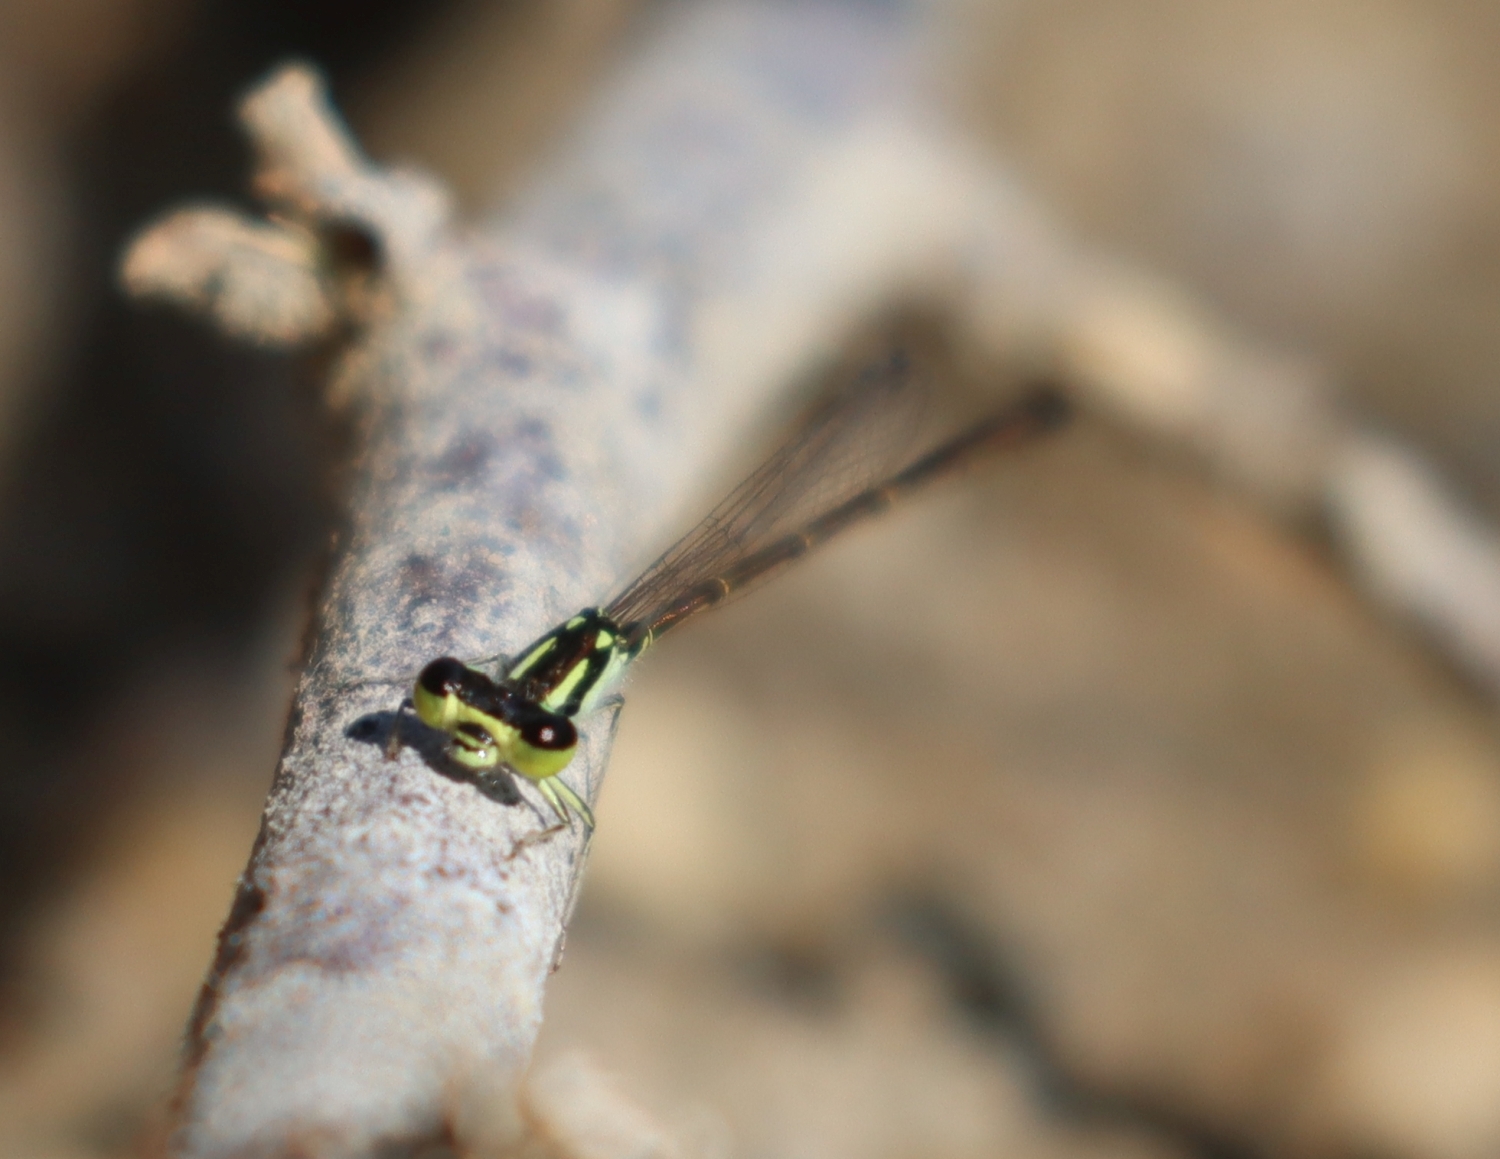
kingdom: Animalia
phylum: Arthropoda
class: Insecta
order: Odonata
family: Coenagrionidae
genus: Ischnura
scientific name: Ischnura posita
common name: Fragile forktail
